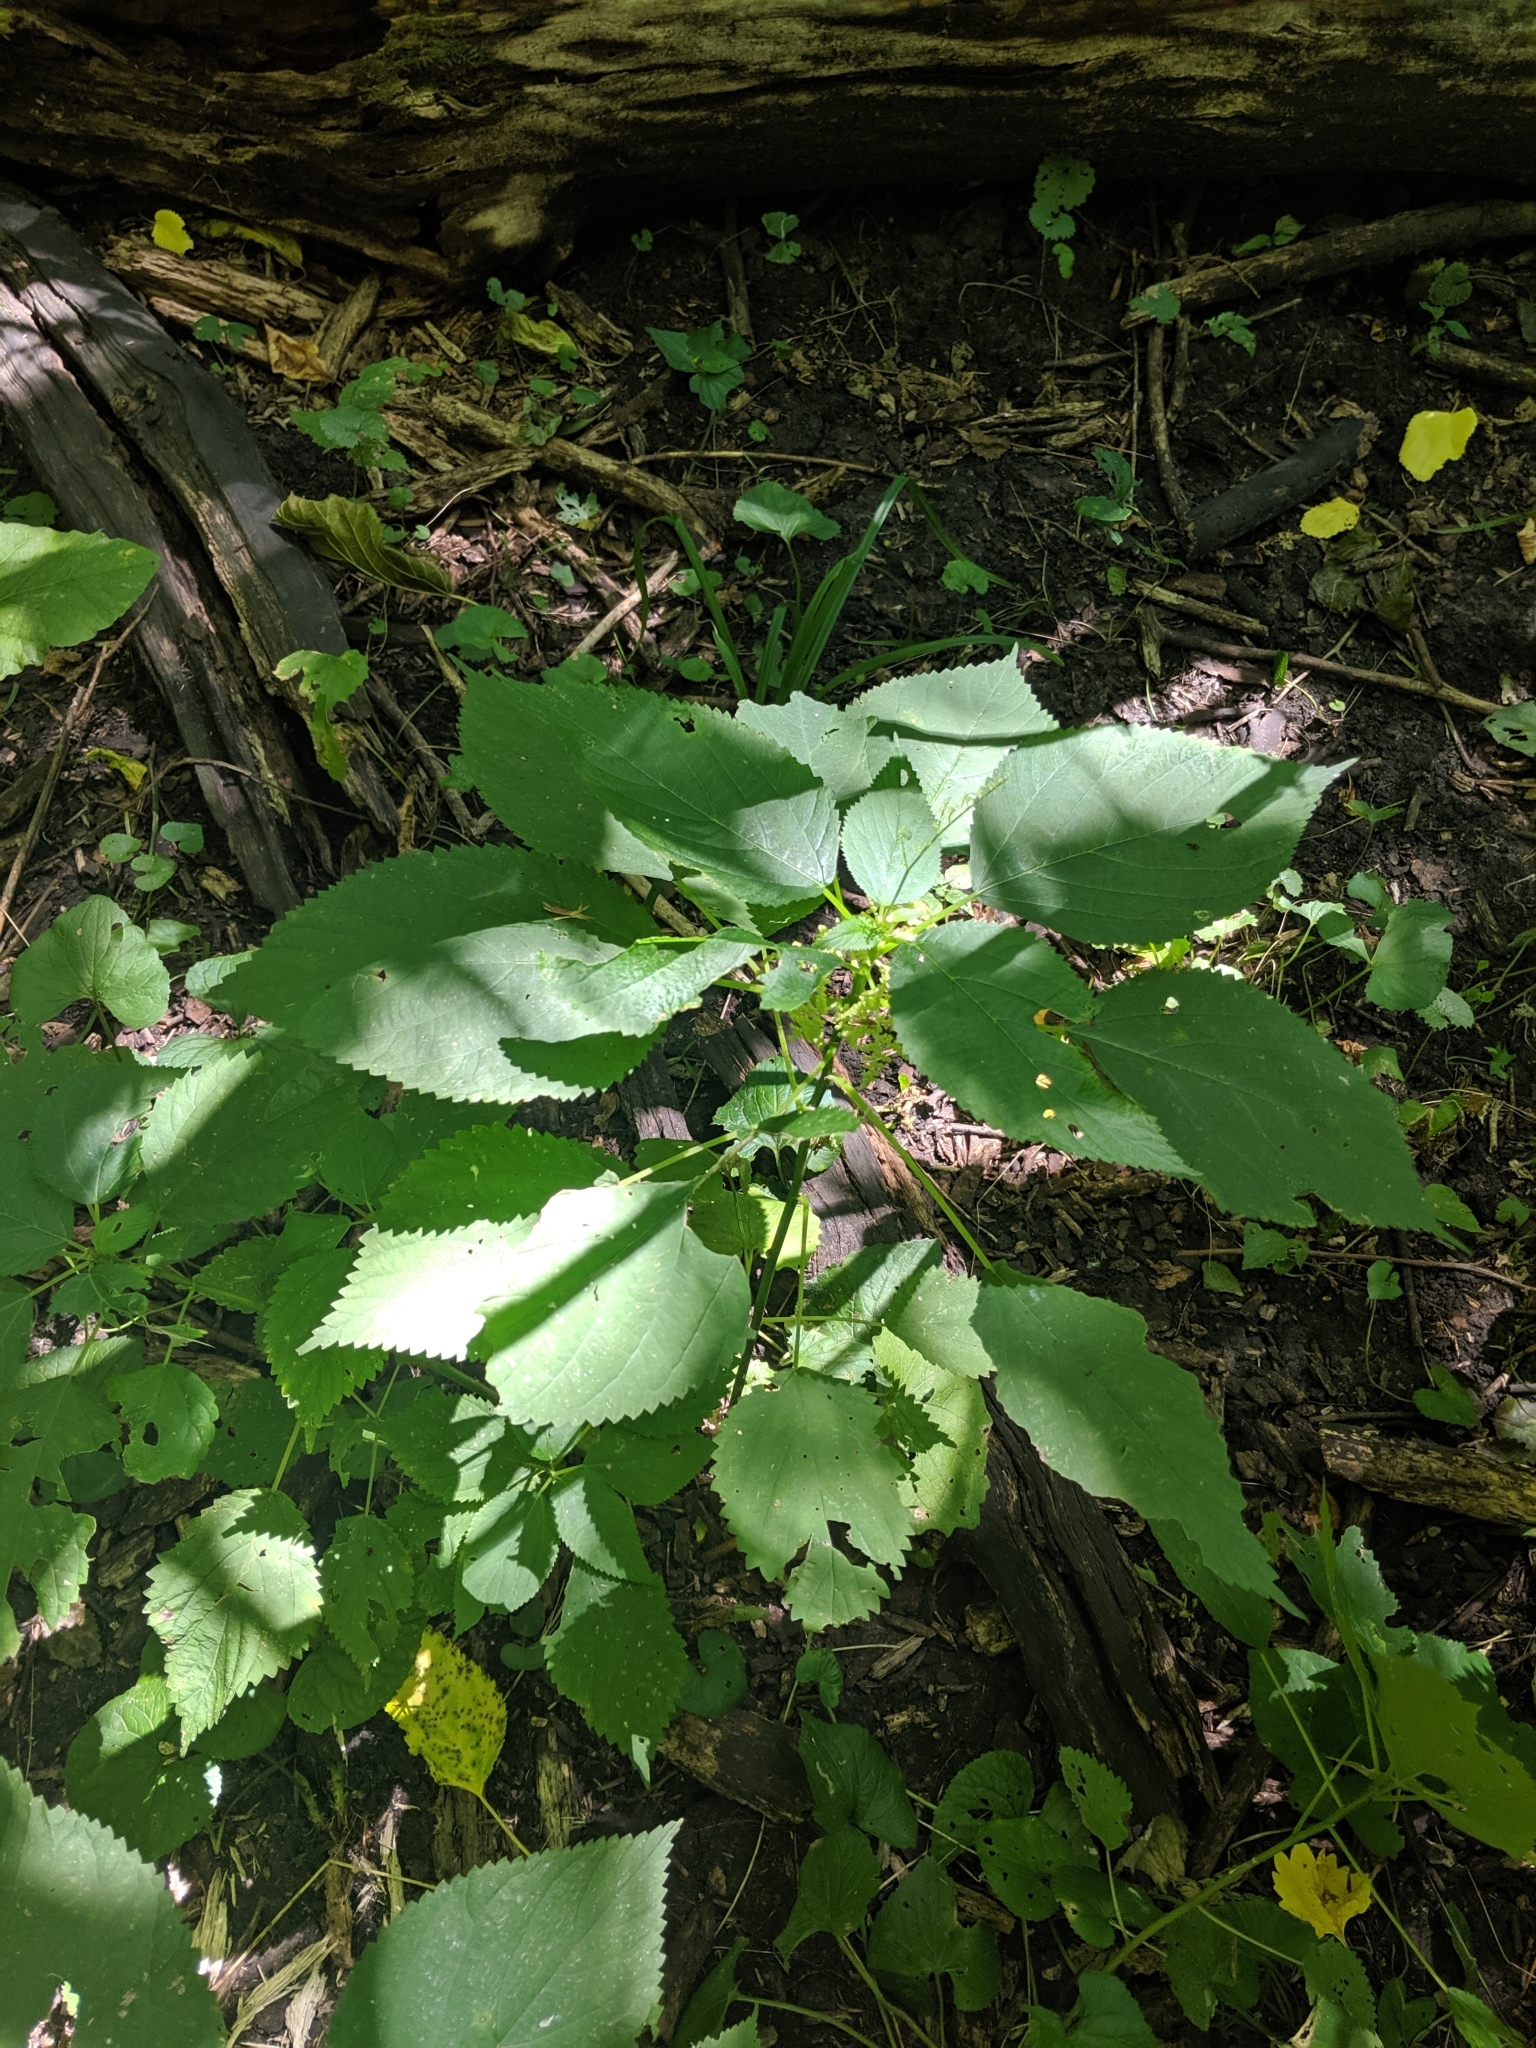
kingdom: Plantae
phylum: Tracheophyta
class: Magnoliopsida
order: Rosales
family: Urticaceae
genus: Laportea
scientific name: Laportea canadensis
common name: Canada nettle
